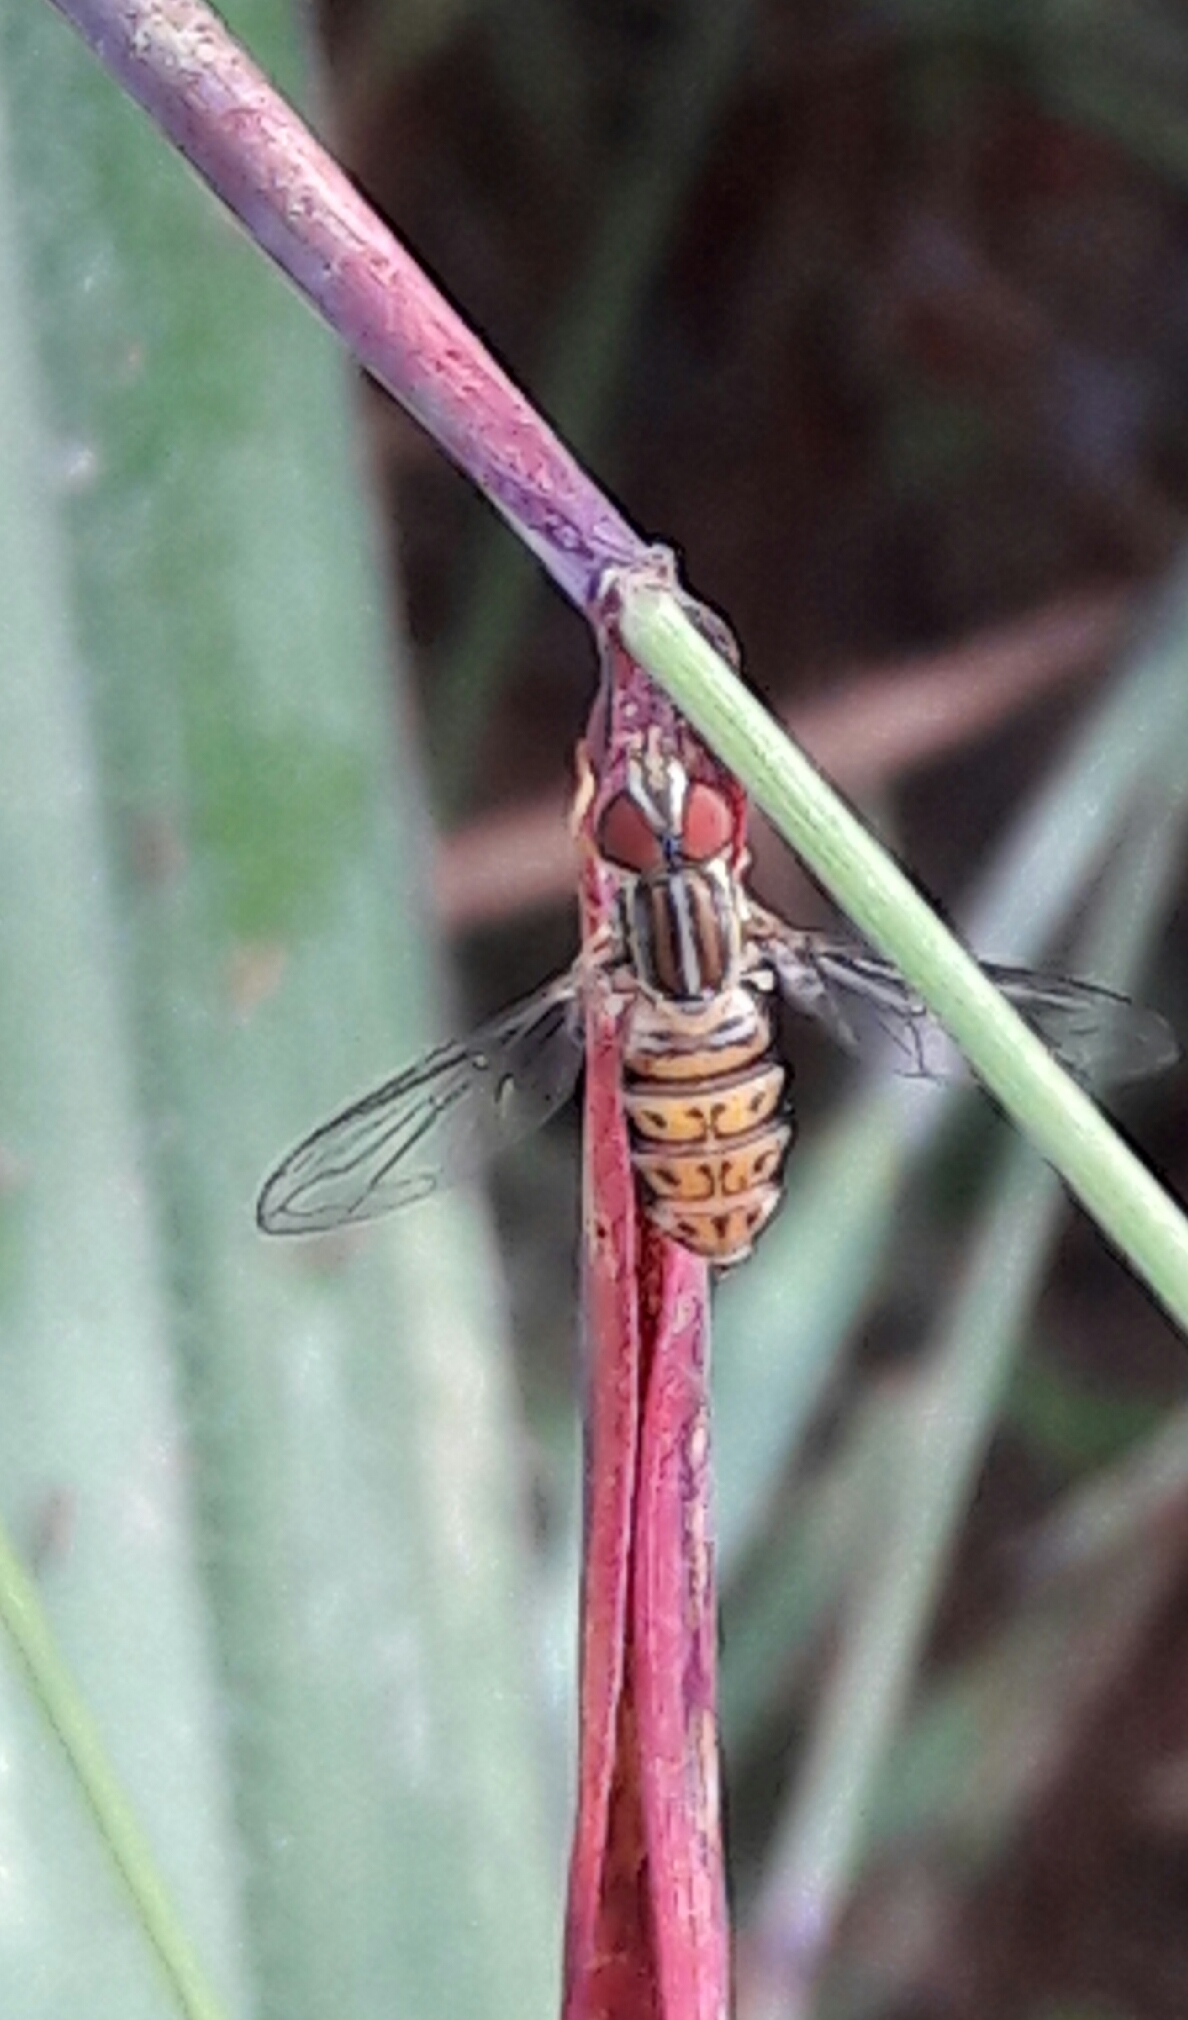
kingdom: Animalia
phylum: Arthropoda
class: Insecta
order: Diptera
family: Syrphidae
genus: Toxomerus
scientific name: Toxomerus pulchellus
